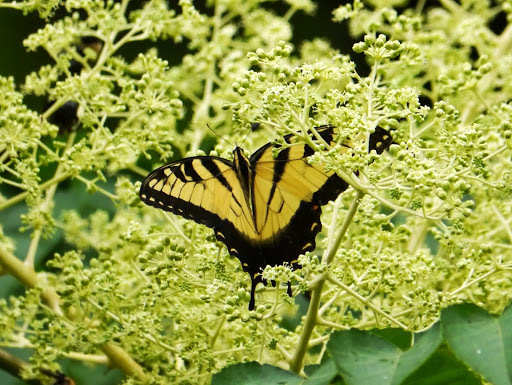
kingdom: Animalia
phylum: Arthropoda
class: Insecta
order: Lepidoptera
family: Papilionidae
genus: Papilio
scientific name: Papilio glaucus
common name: Tiger swallowtail
